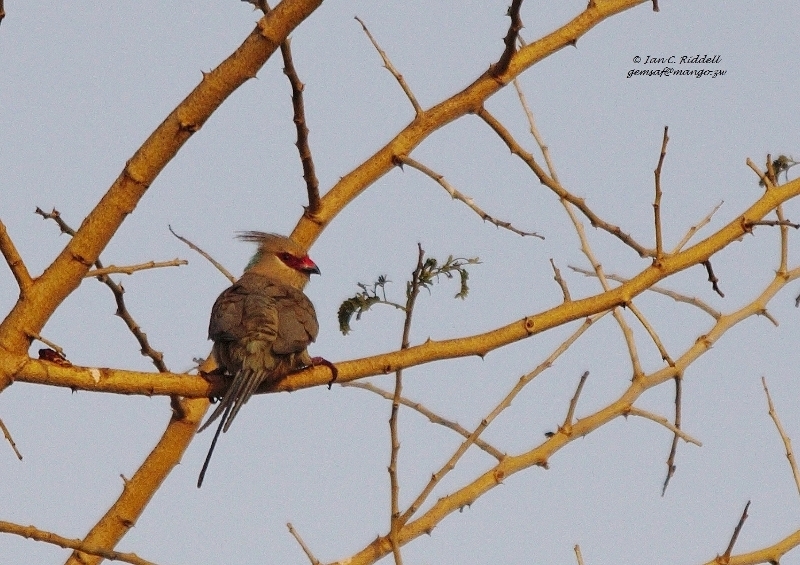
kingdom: Animalia
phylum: Chordata
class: Aves
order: Coliiformes
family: Coliidae
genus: Urocolius
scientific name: Urocolius macrourus
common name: Blue-naped mousebird
